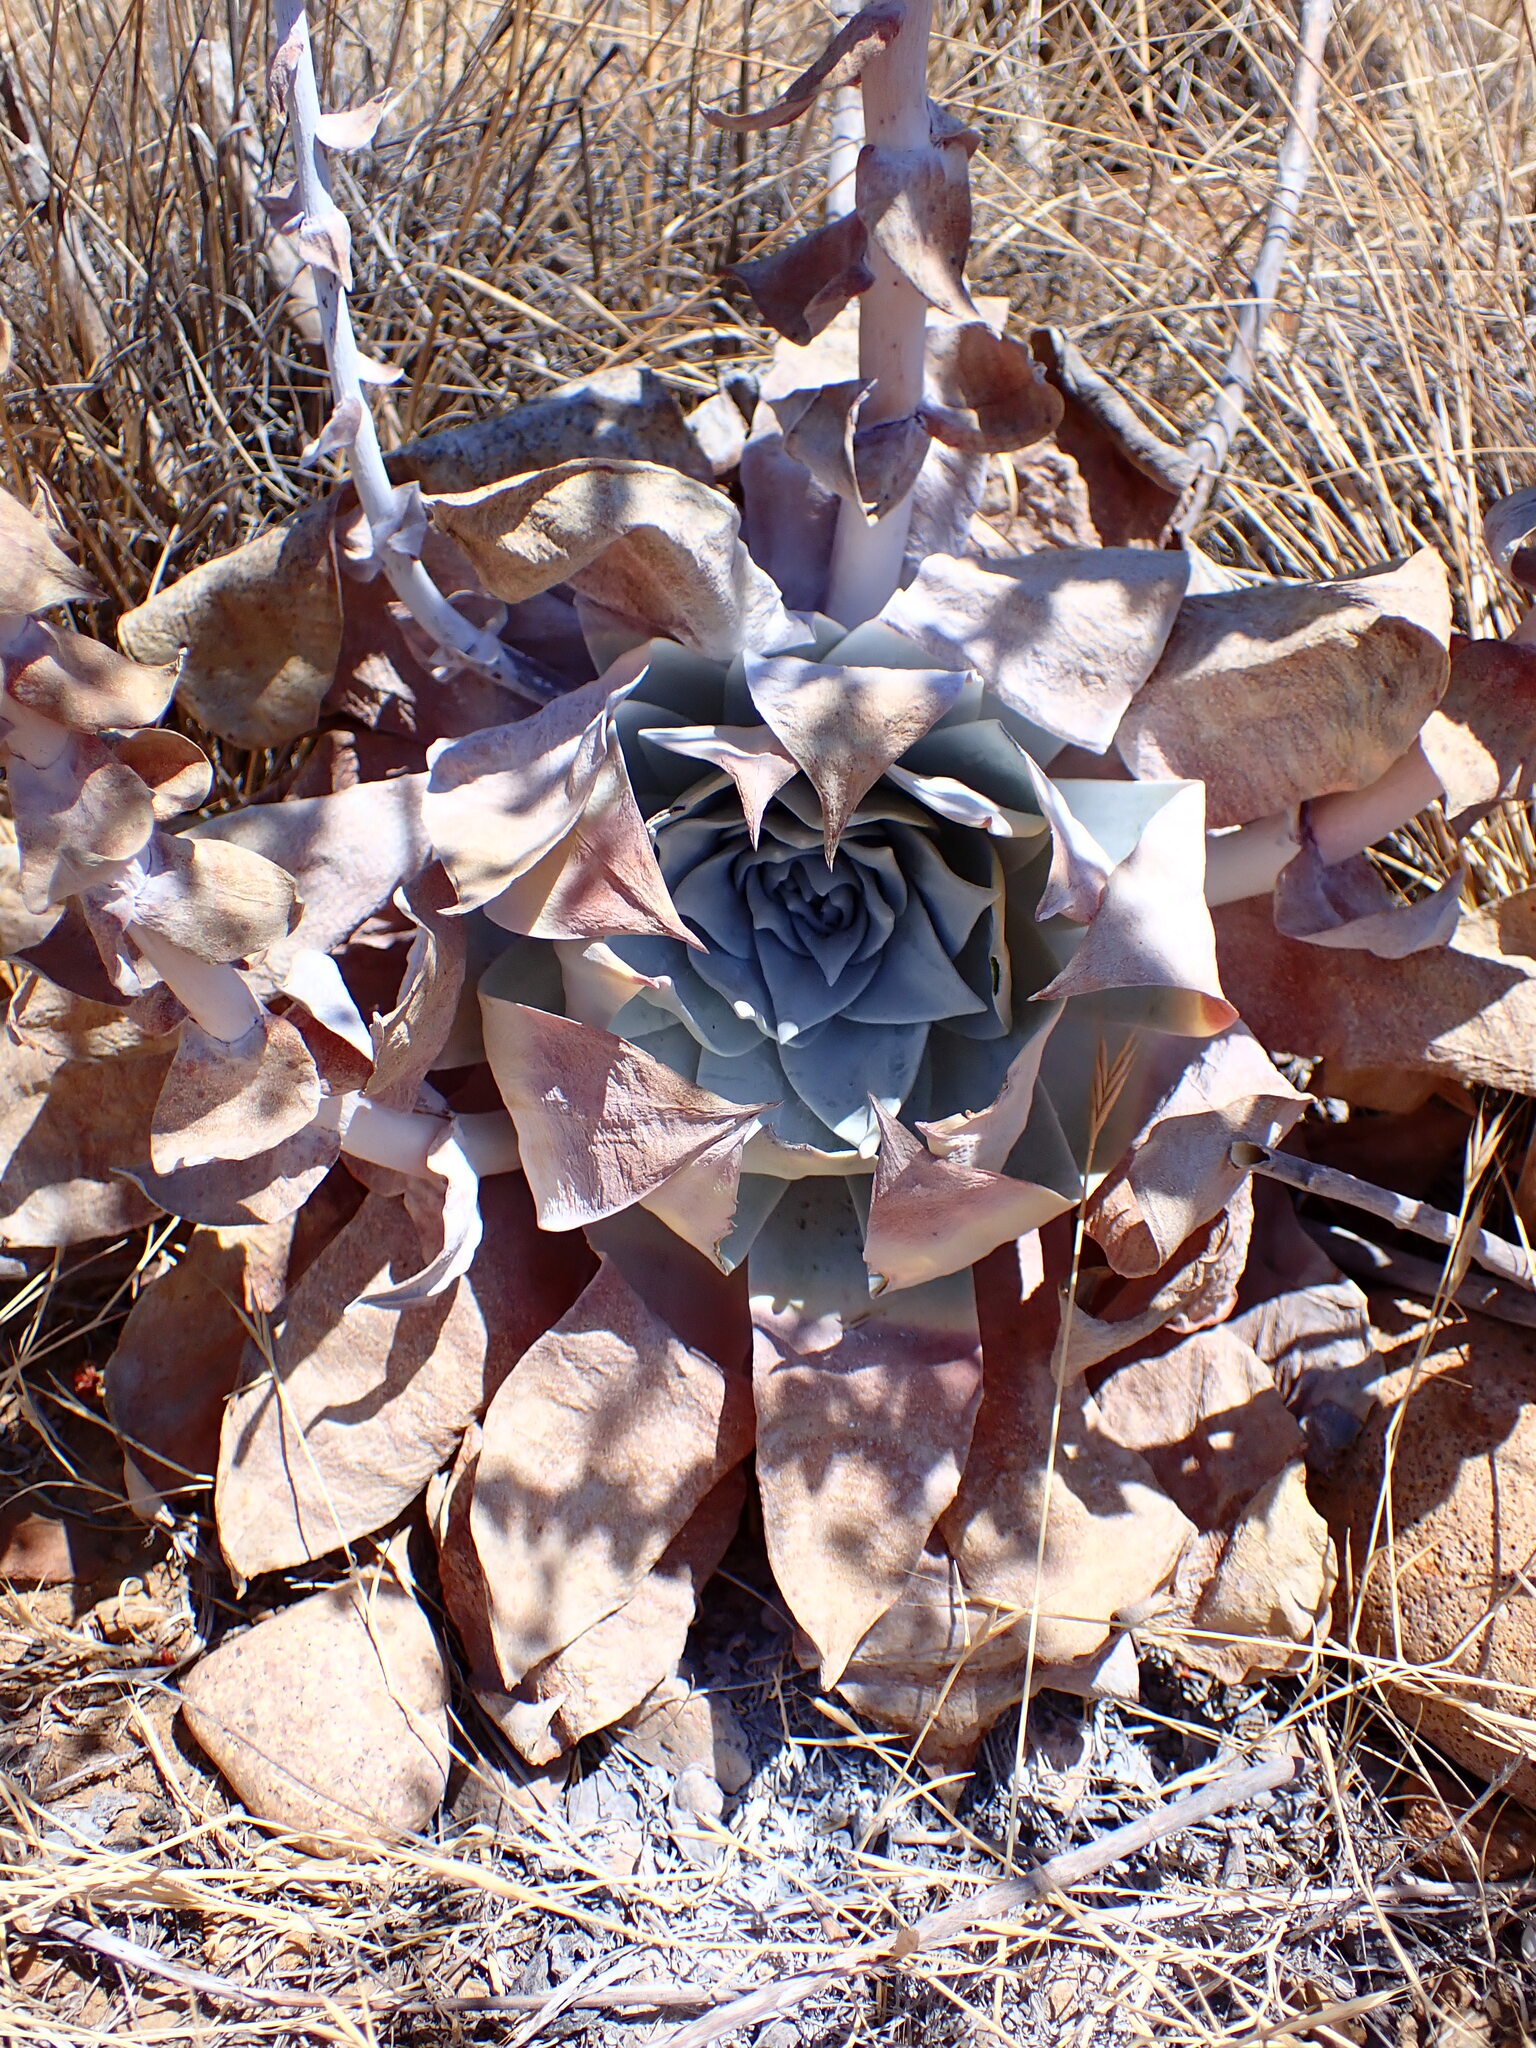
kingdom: Plantae
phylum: Tracheophyta
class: Magnoliopsida
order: Saxifragales
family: Crassulaceae
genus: Dudleya
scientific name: Dudleya pulverulenta
